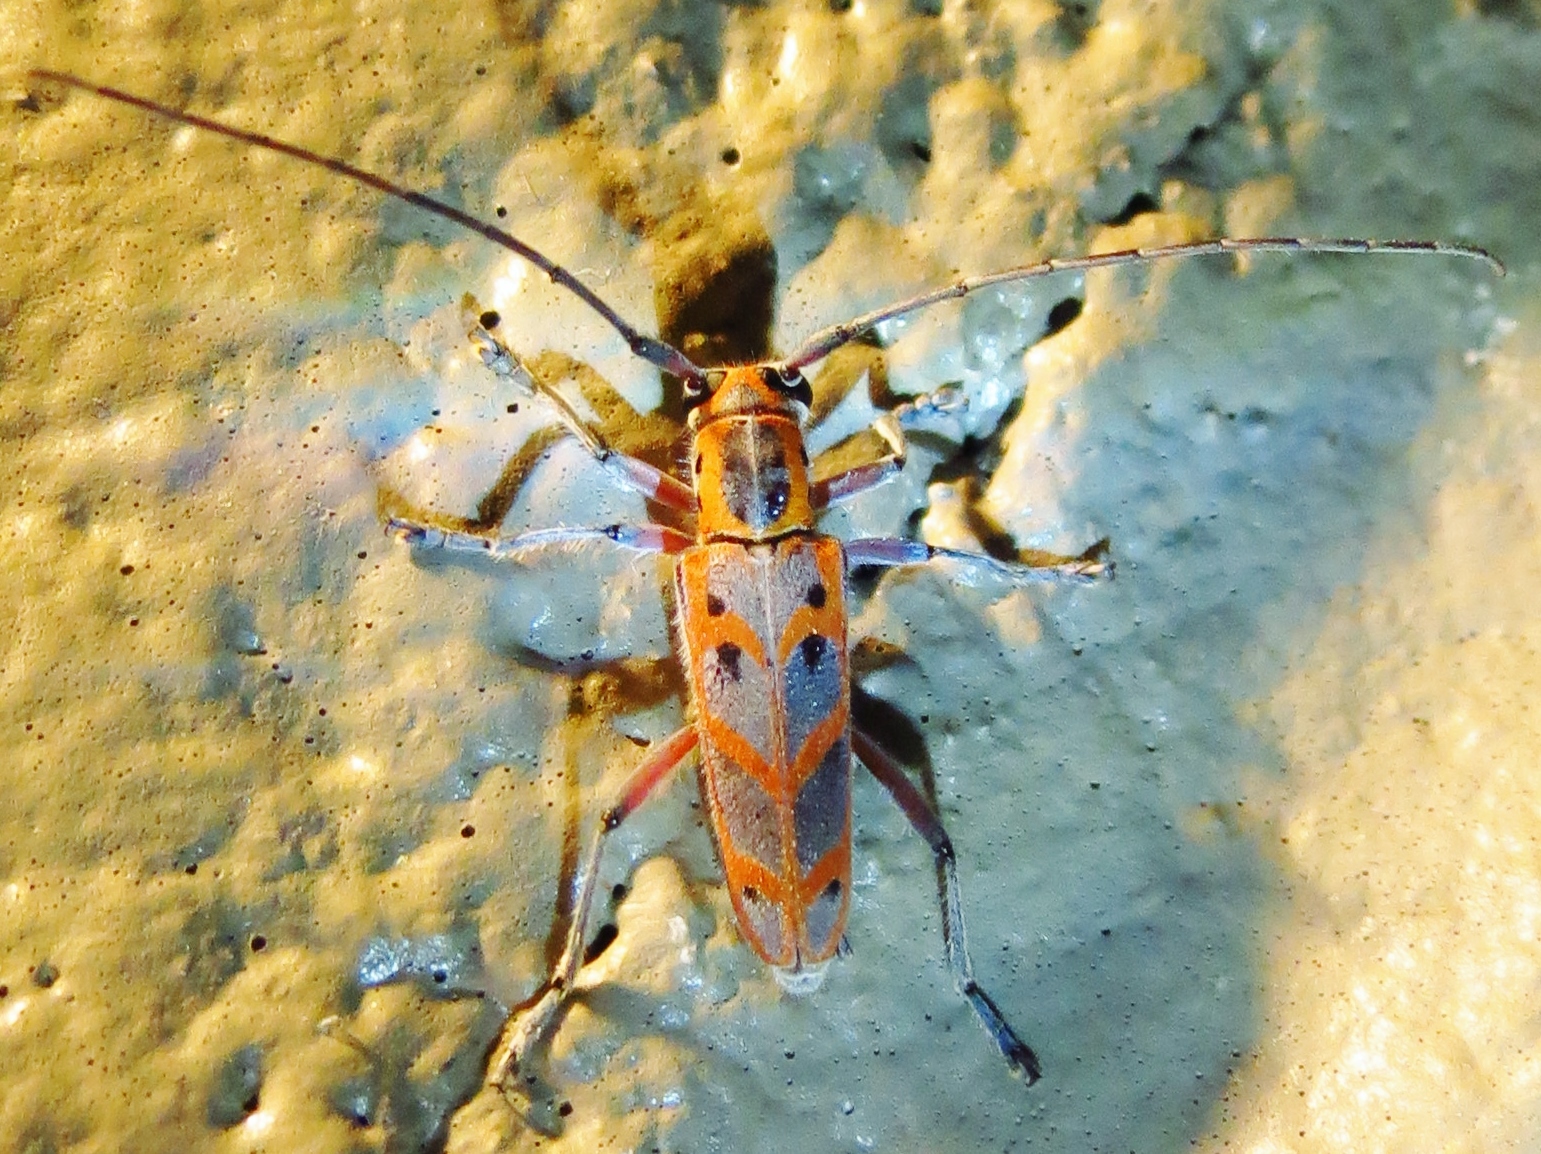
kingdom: Animalia
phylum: Arthropoda
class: Insecta
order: Coleoptera
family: Cerambycidae
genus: Saperda
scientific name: Saperda tridentata
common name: Elm borer
